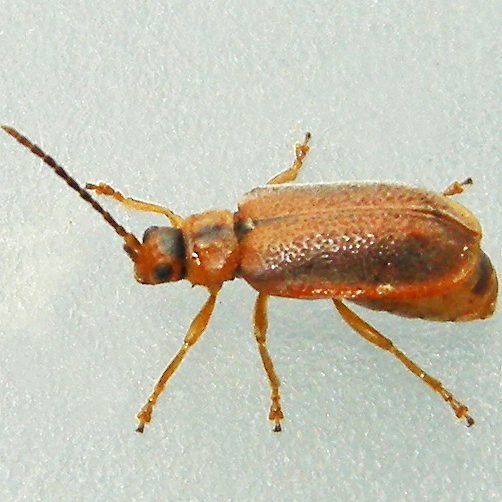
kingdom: Animalia
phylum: Arthropoda
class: Insecta
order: Coleoptera
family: Chrysomelidae
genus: Neogalerucella
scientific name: Neogalerucella calmariensis
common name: Black-margined loosestrife beetle
